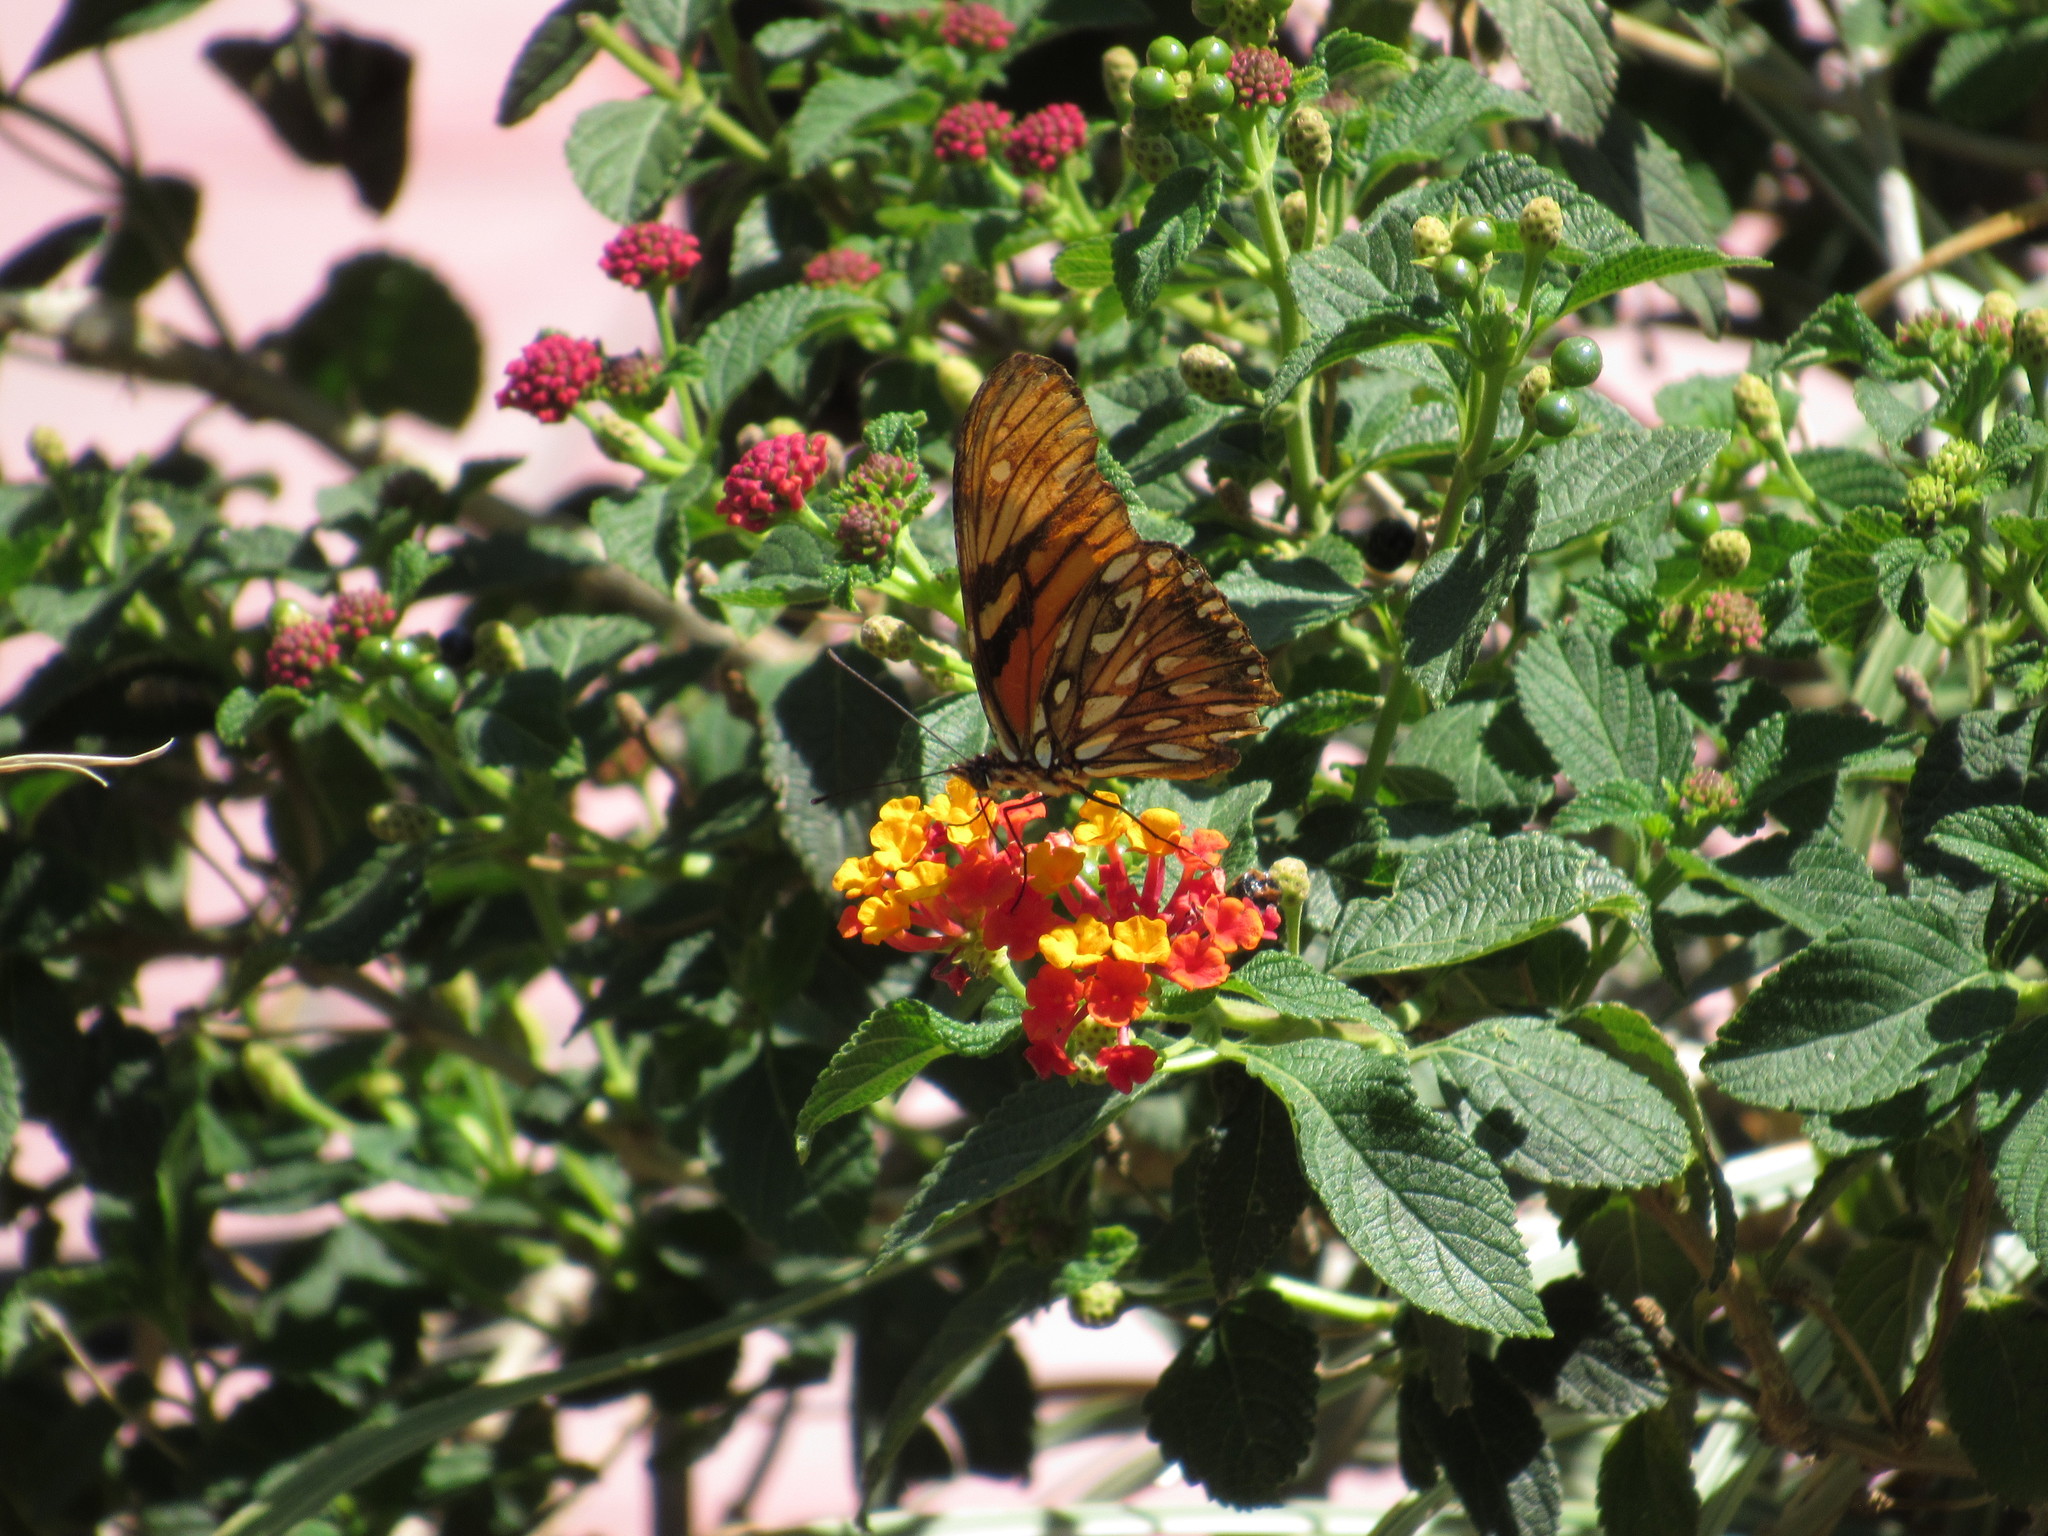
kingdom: Animalia
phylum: Arthropoda
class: Insecta
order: Lepidoptera
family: Nymphalidae
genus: Dione
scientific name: Dione juno
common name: Juno silverspot
